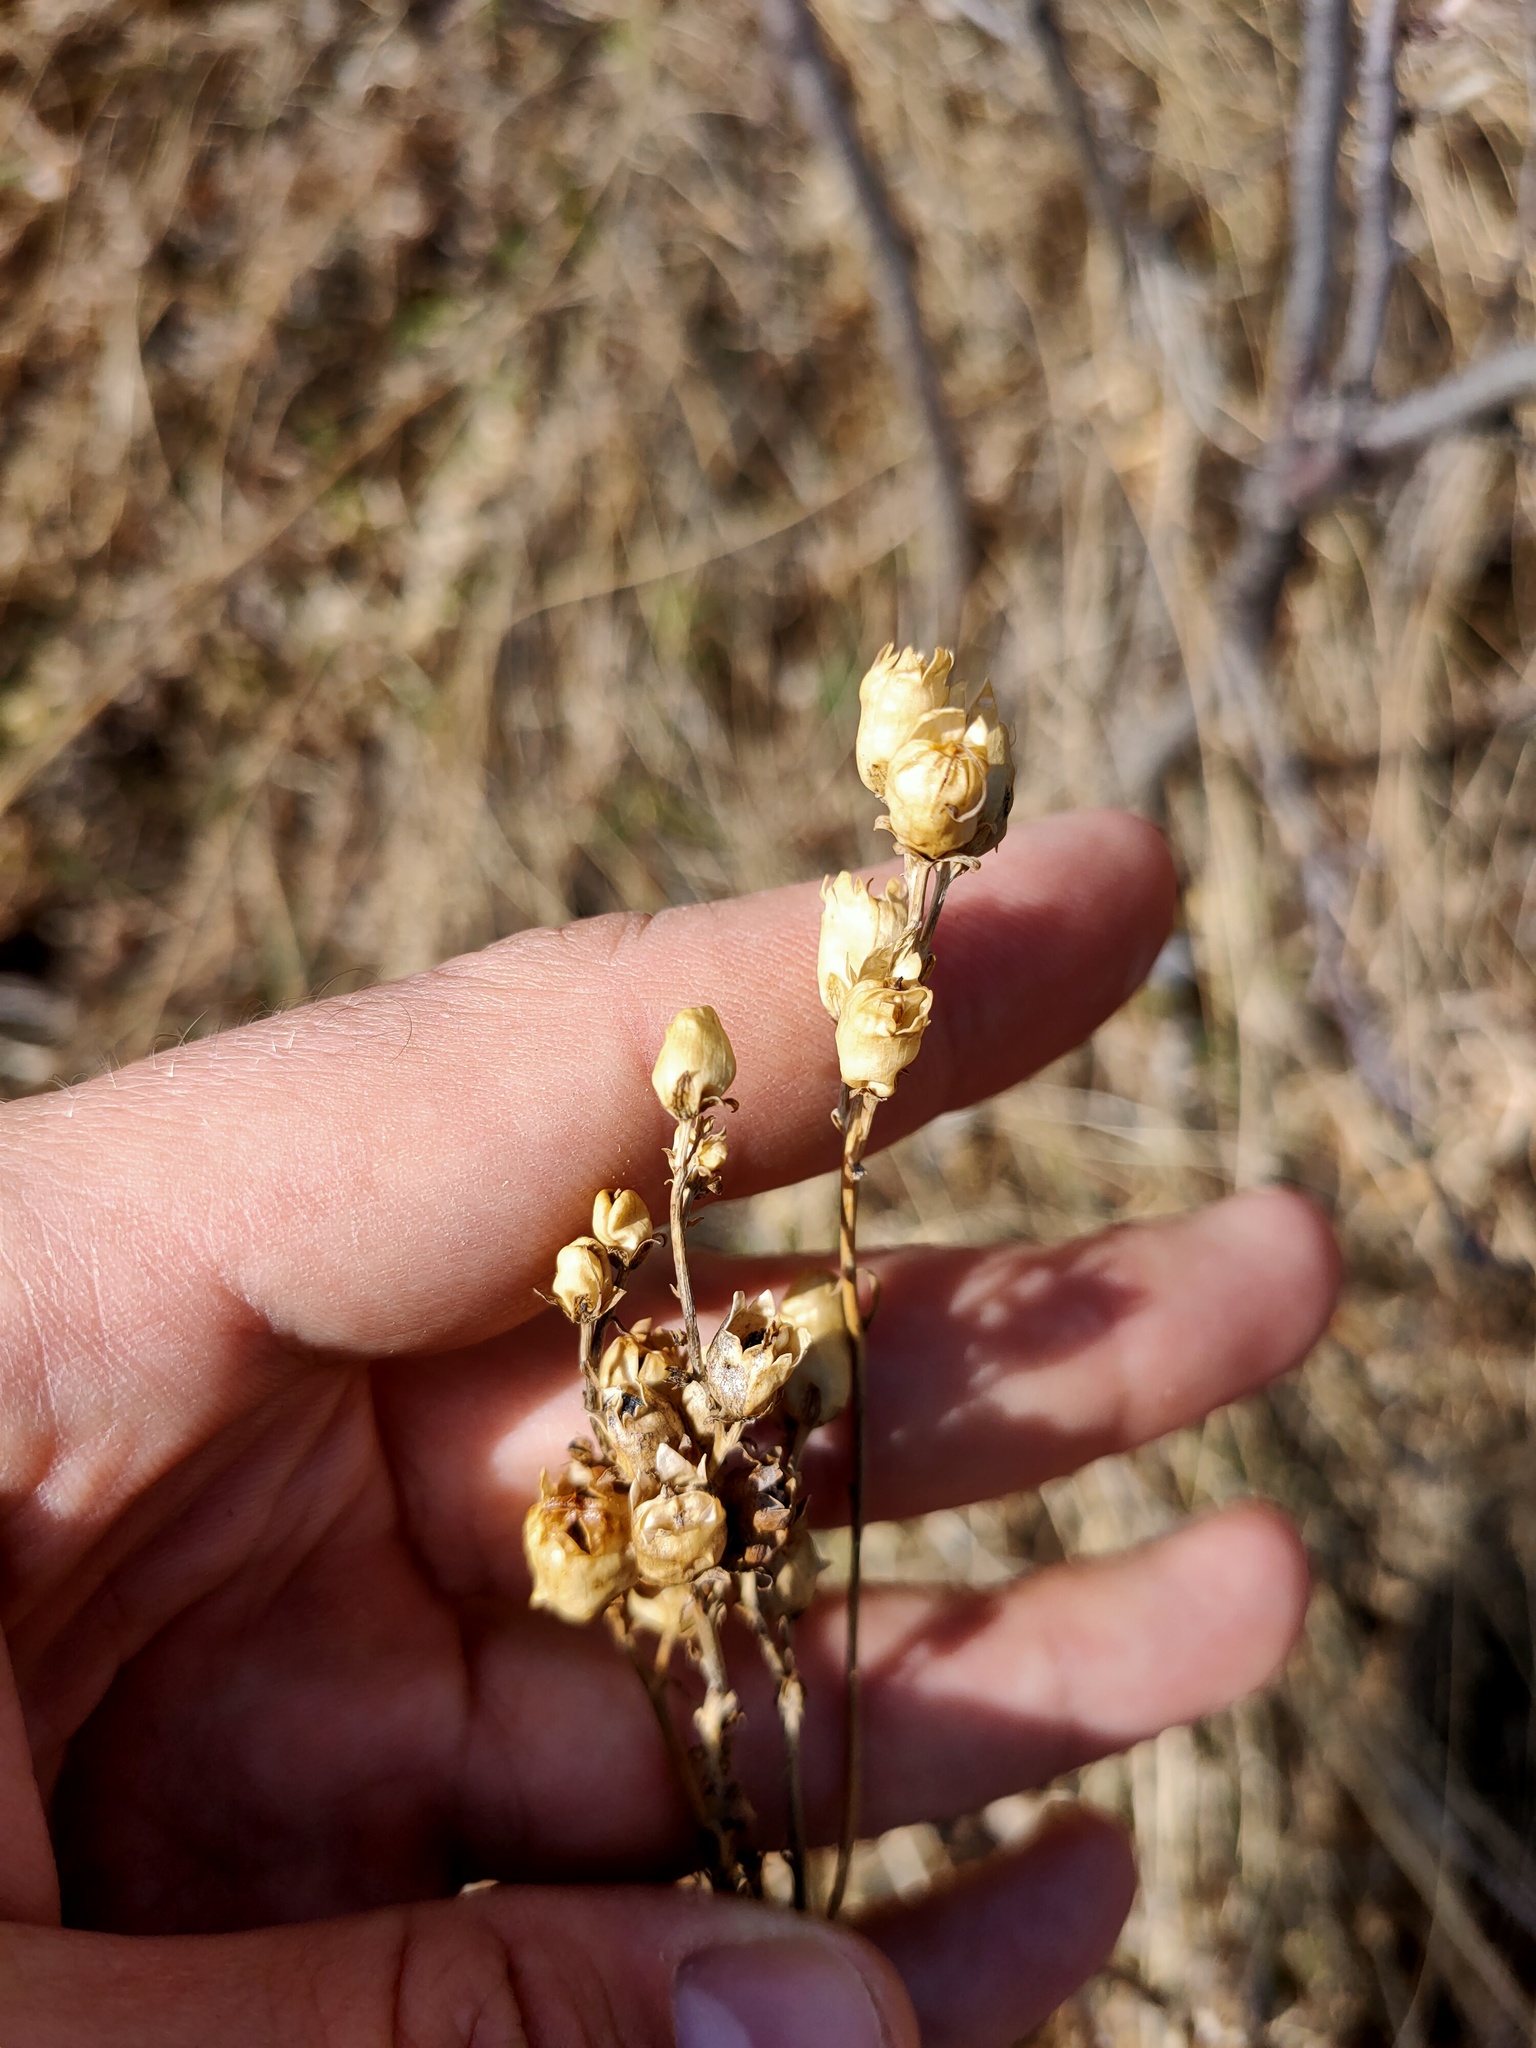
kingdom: Plantae
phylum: Tracheophyta
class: Magnoliopsida
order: Lamiales
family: Plantaginaceae
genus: Linaria
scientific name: Linaria vulgaris
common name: Butter and eggs
